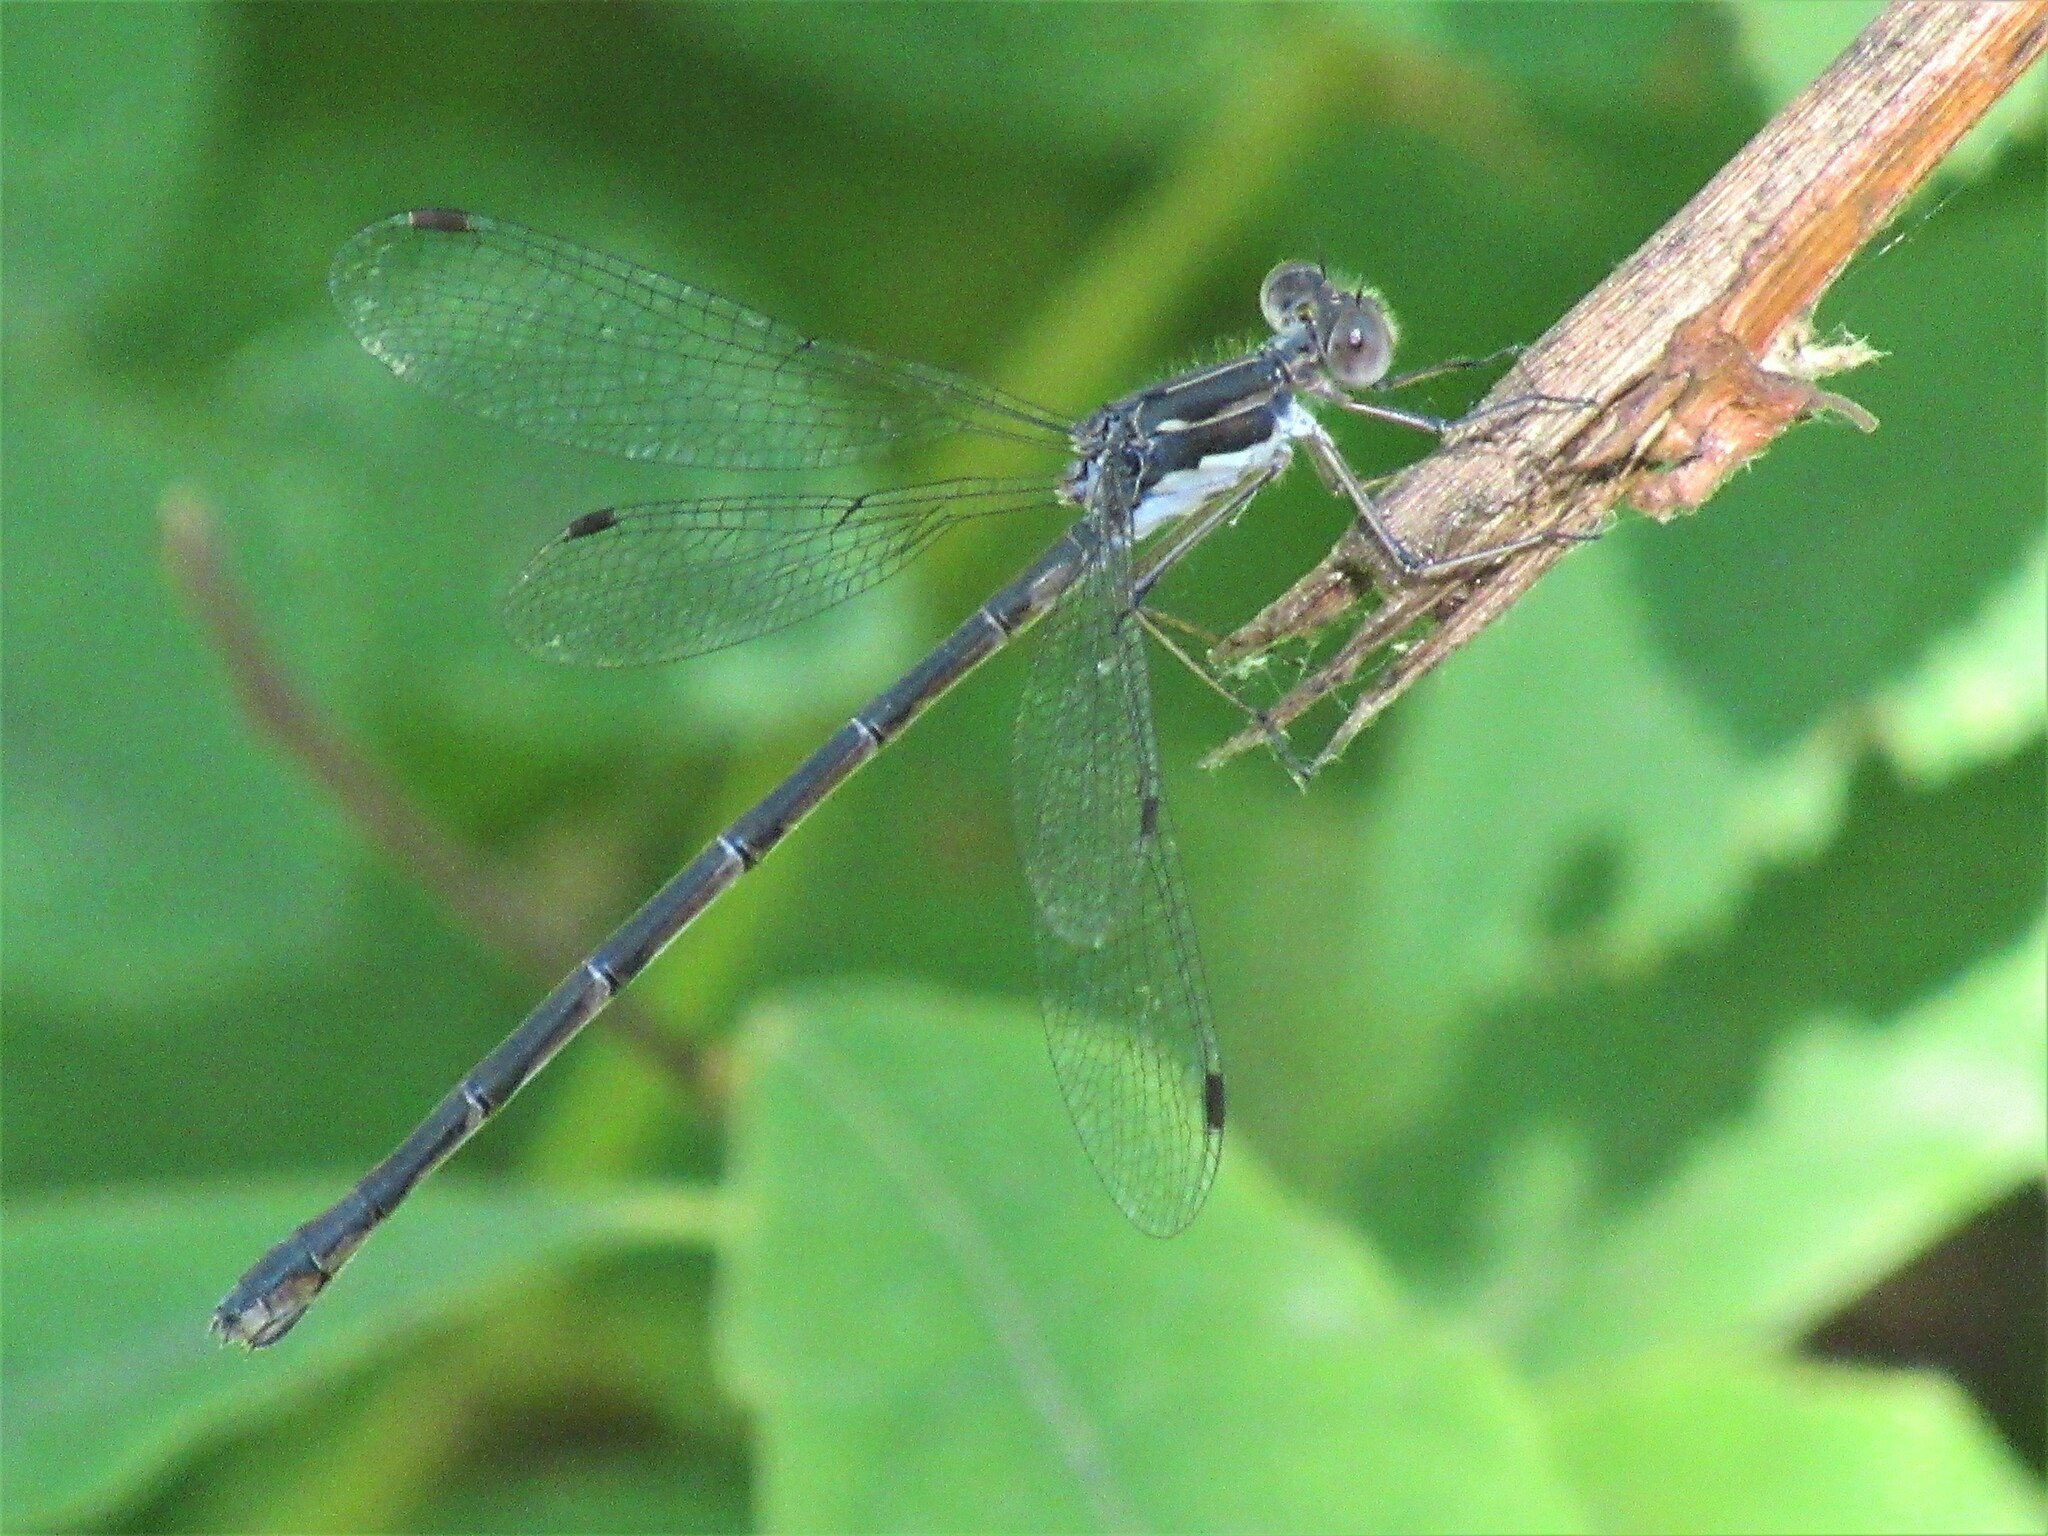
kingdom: Animalia
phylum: Arthropoda
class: Insecta
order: Odonata
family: Lestidae
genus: Lestes
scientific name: Lestes congener
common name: Spotted spreadwing
